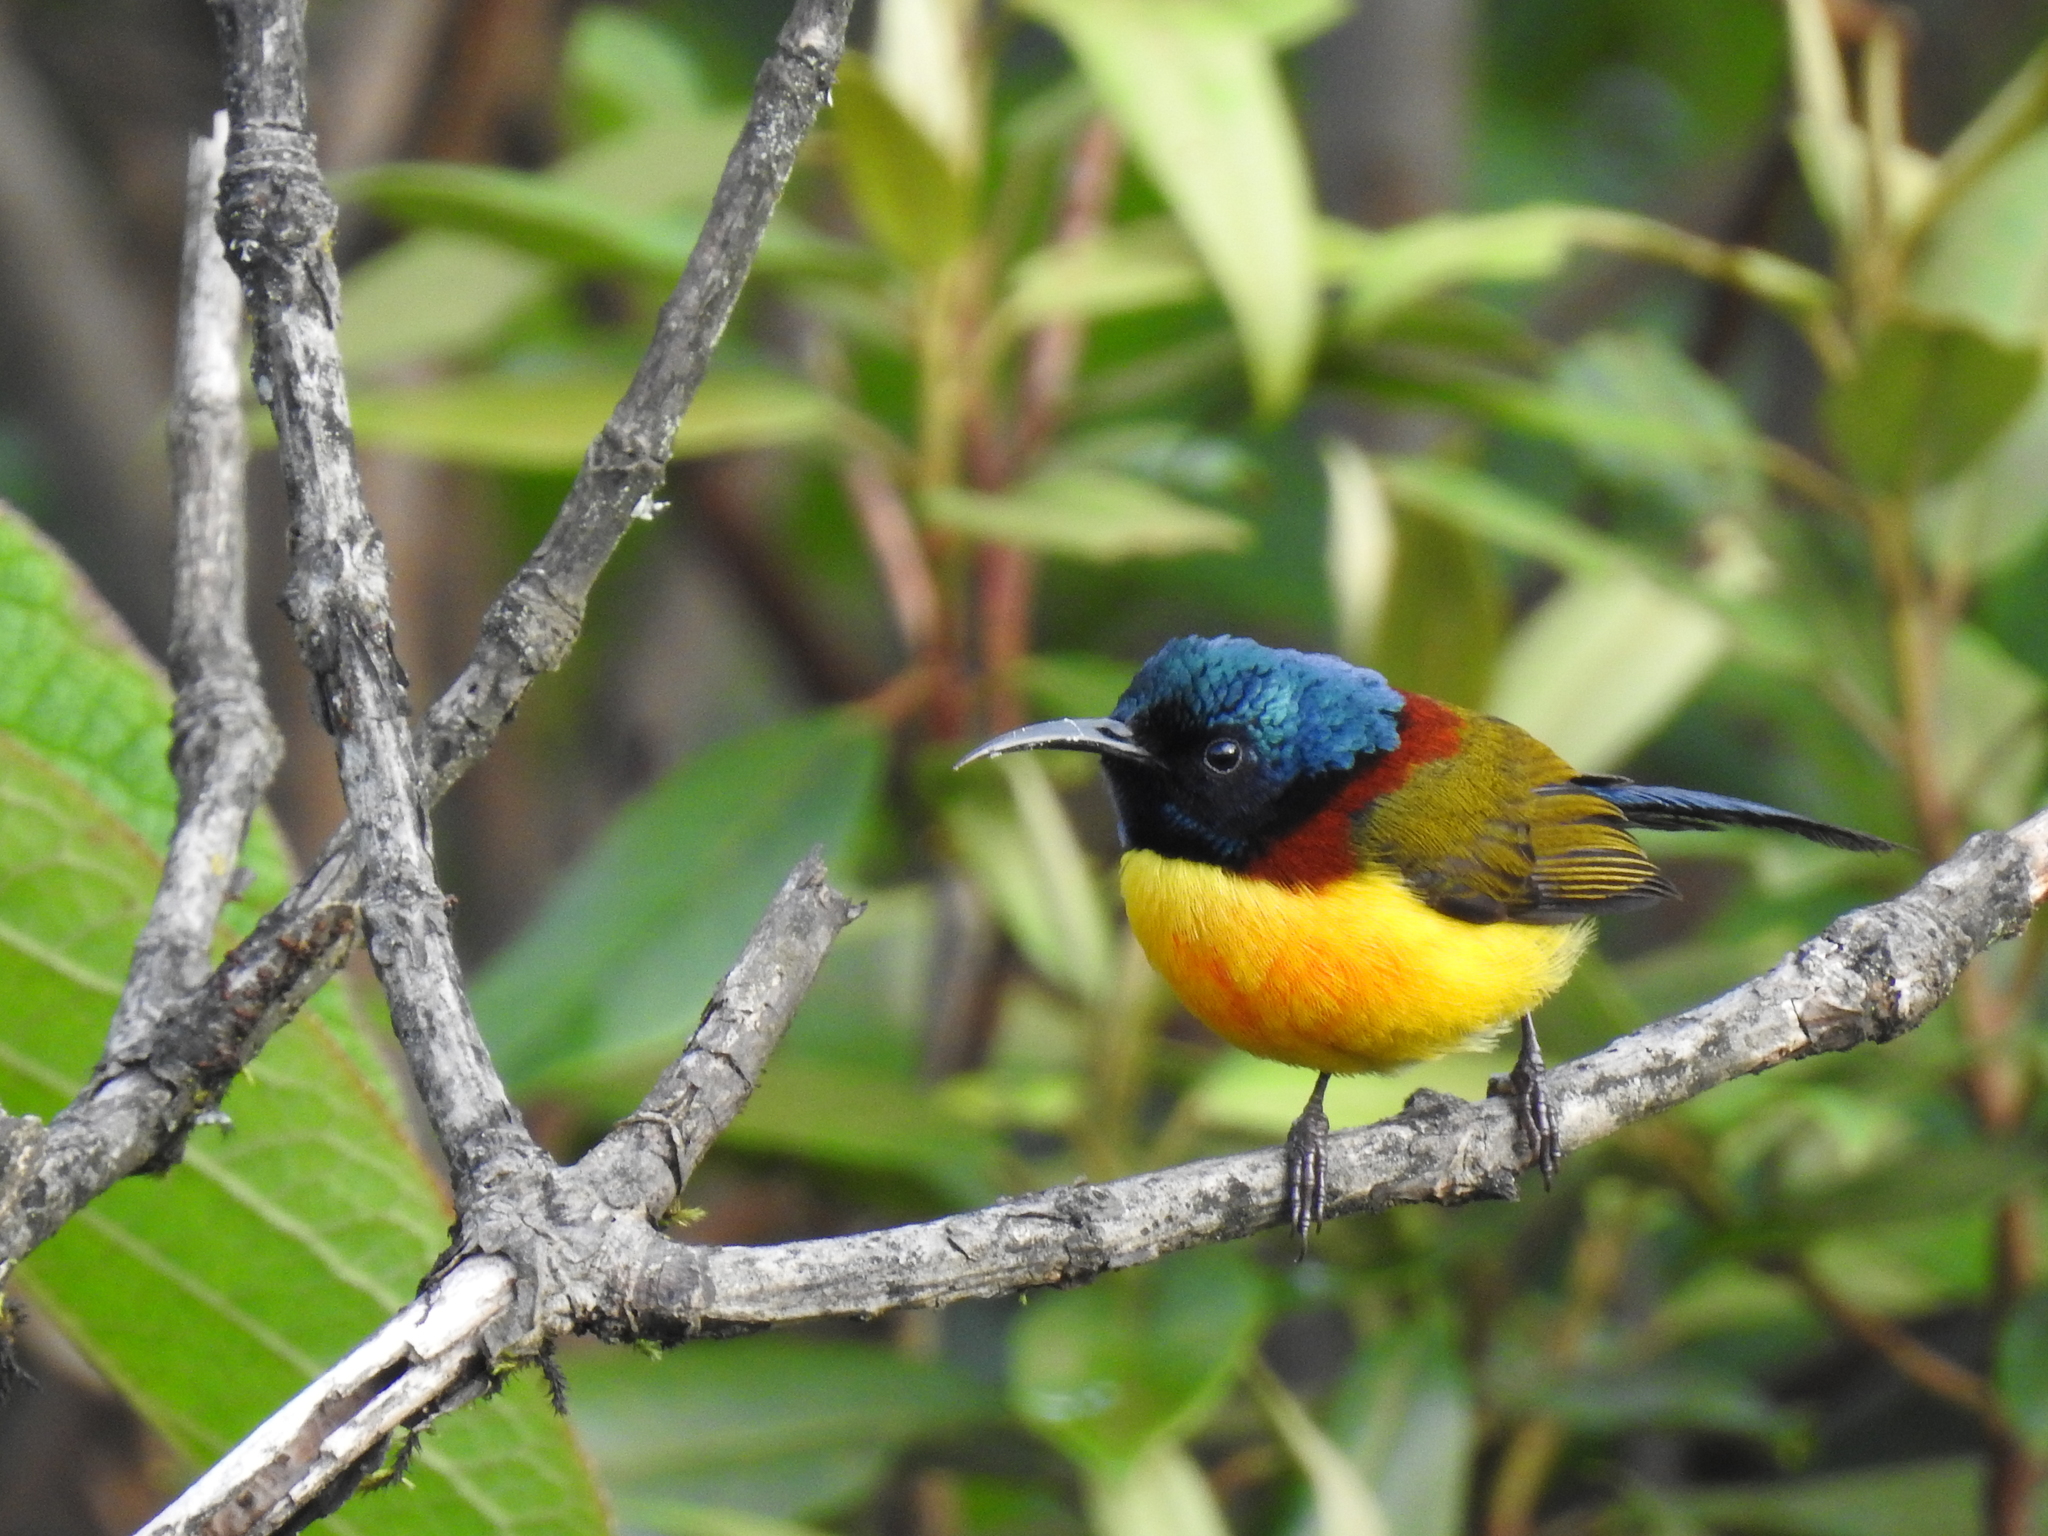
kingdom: Animalia
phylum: Chordata
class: Aves
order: Passeriformes
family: Nectariniidae
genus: Aethopyga
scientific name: Aethopyga nipalensis
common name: Green-tailed sunbird
